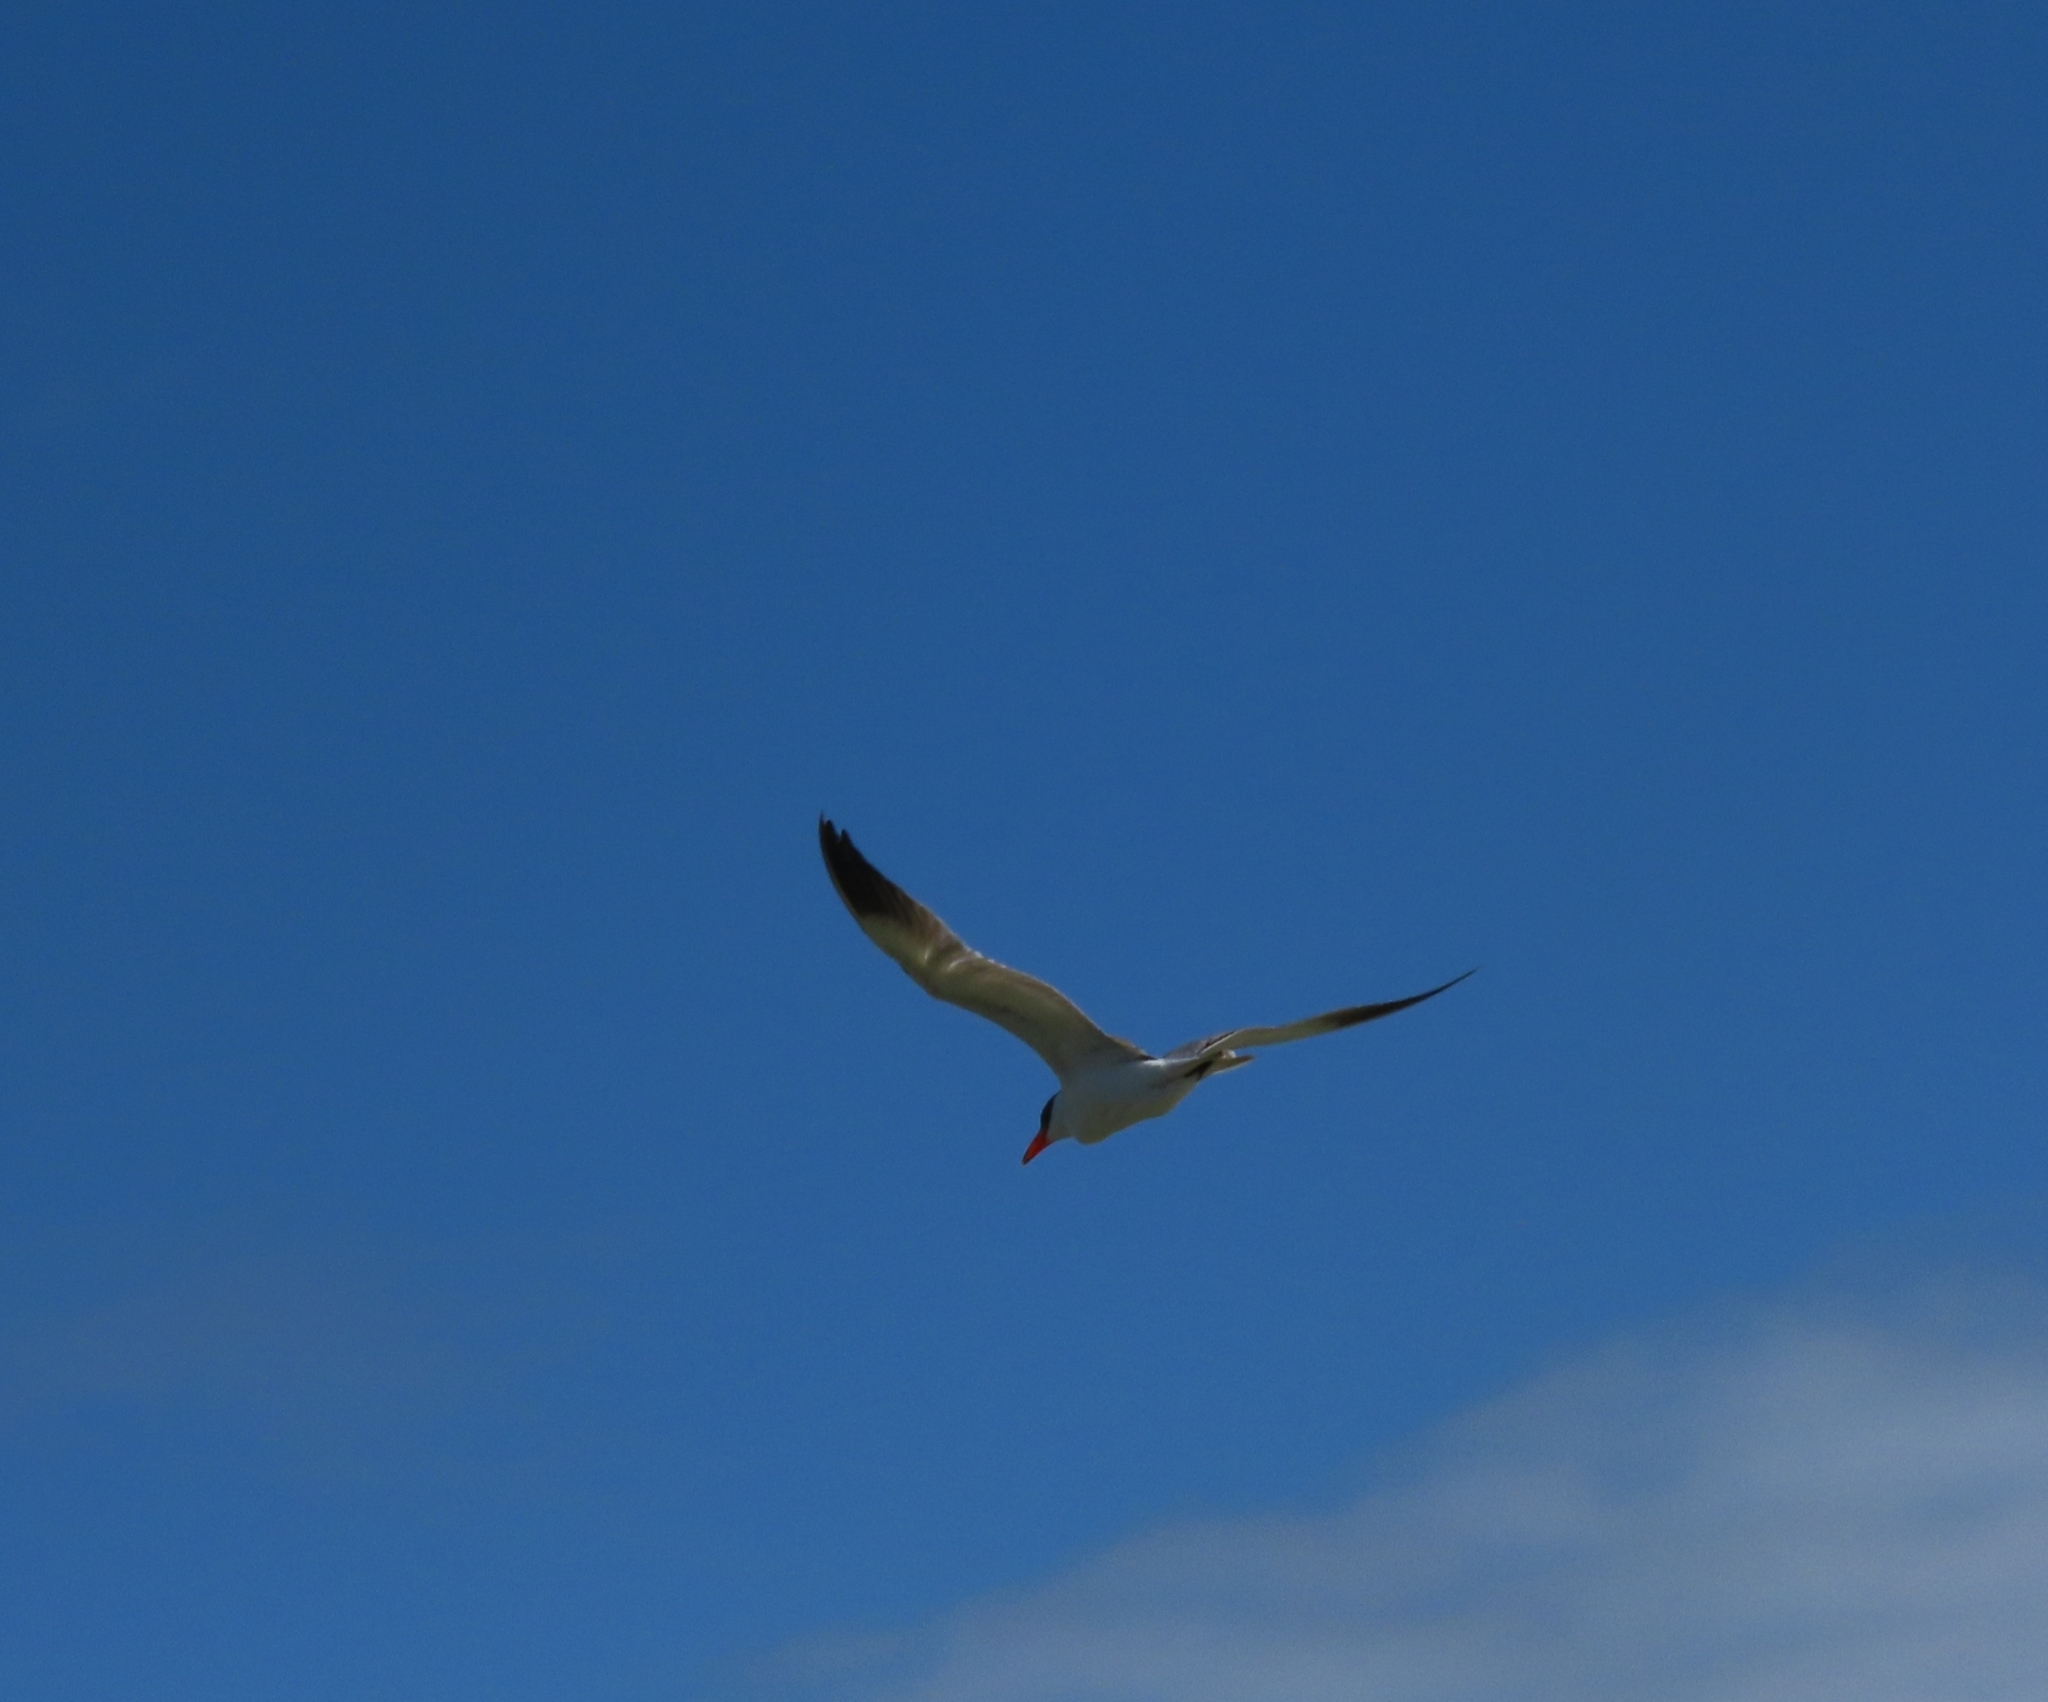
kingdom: Animalia
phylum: Chordata
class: Aves
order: Charadriiformes
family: Laridae
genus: Hydroprogne
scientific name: Hydroprogne caspia
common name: Caspian tern
